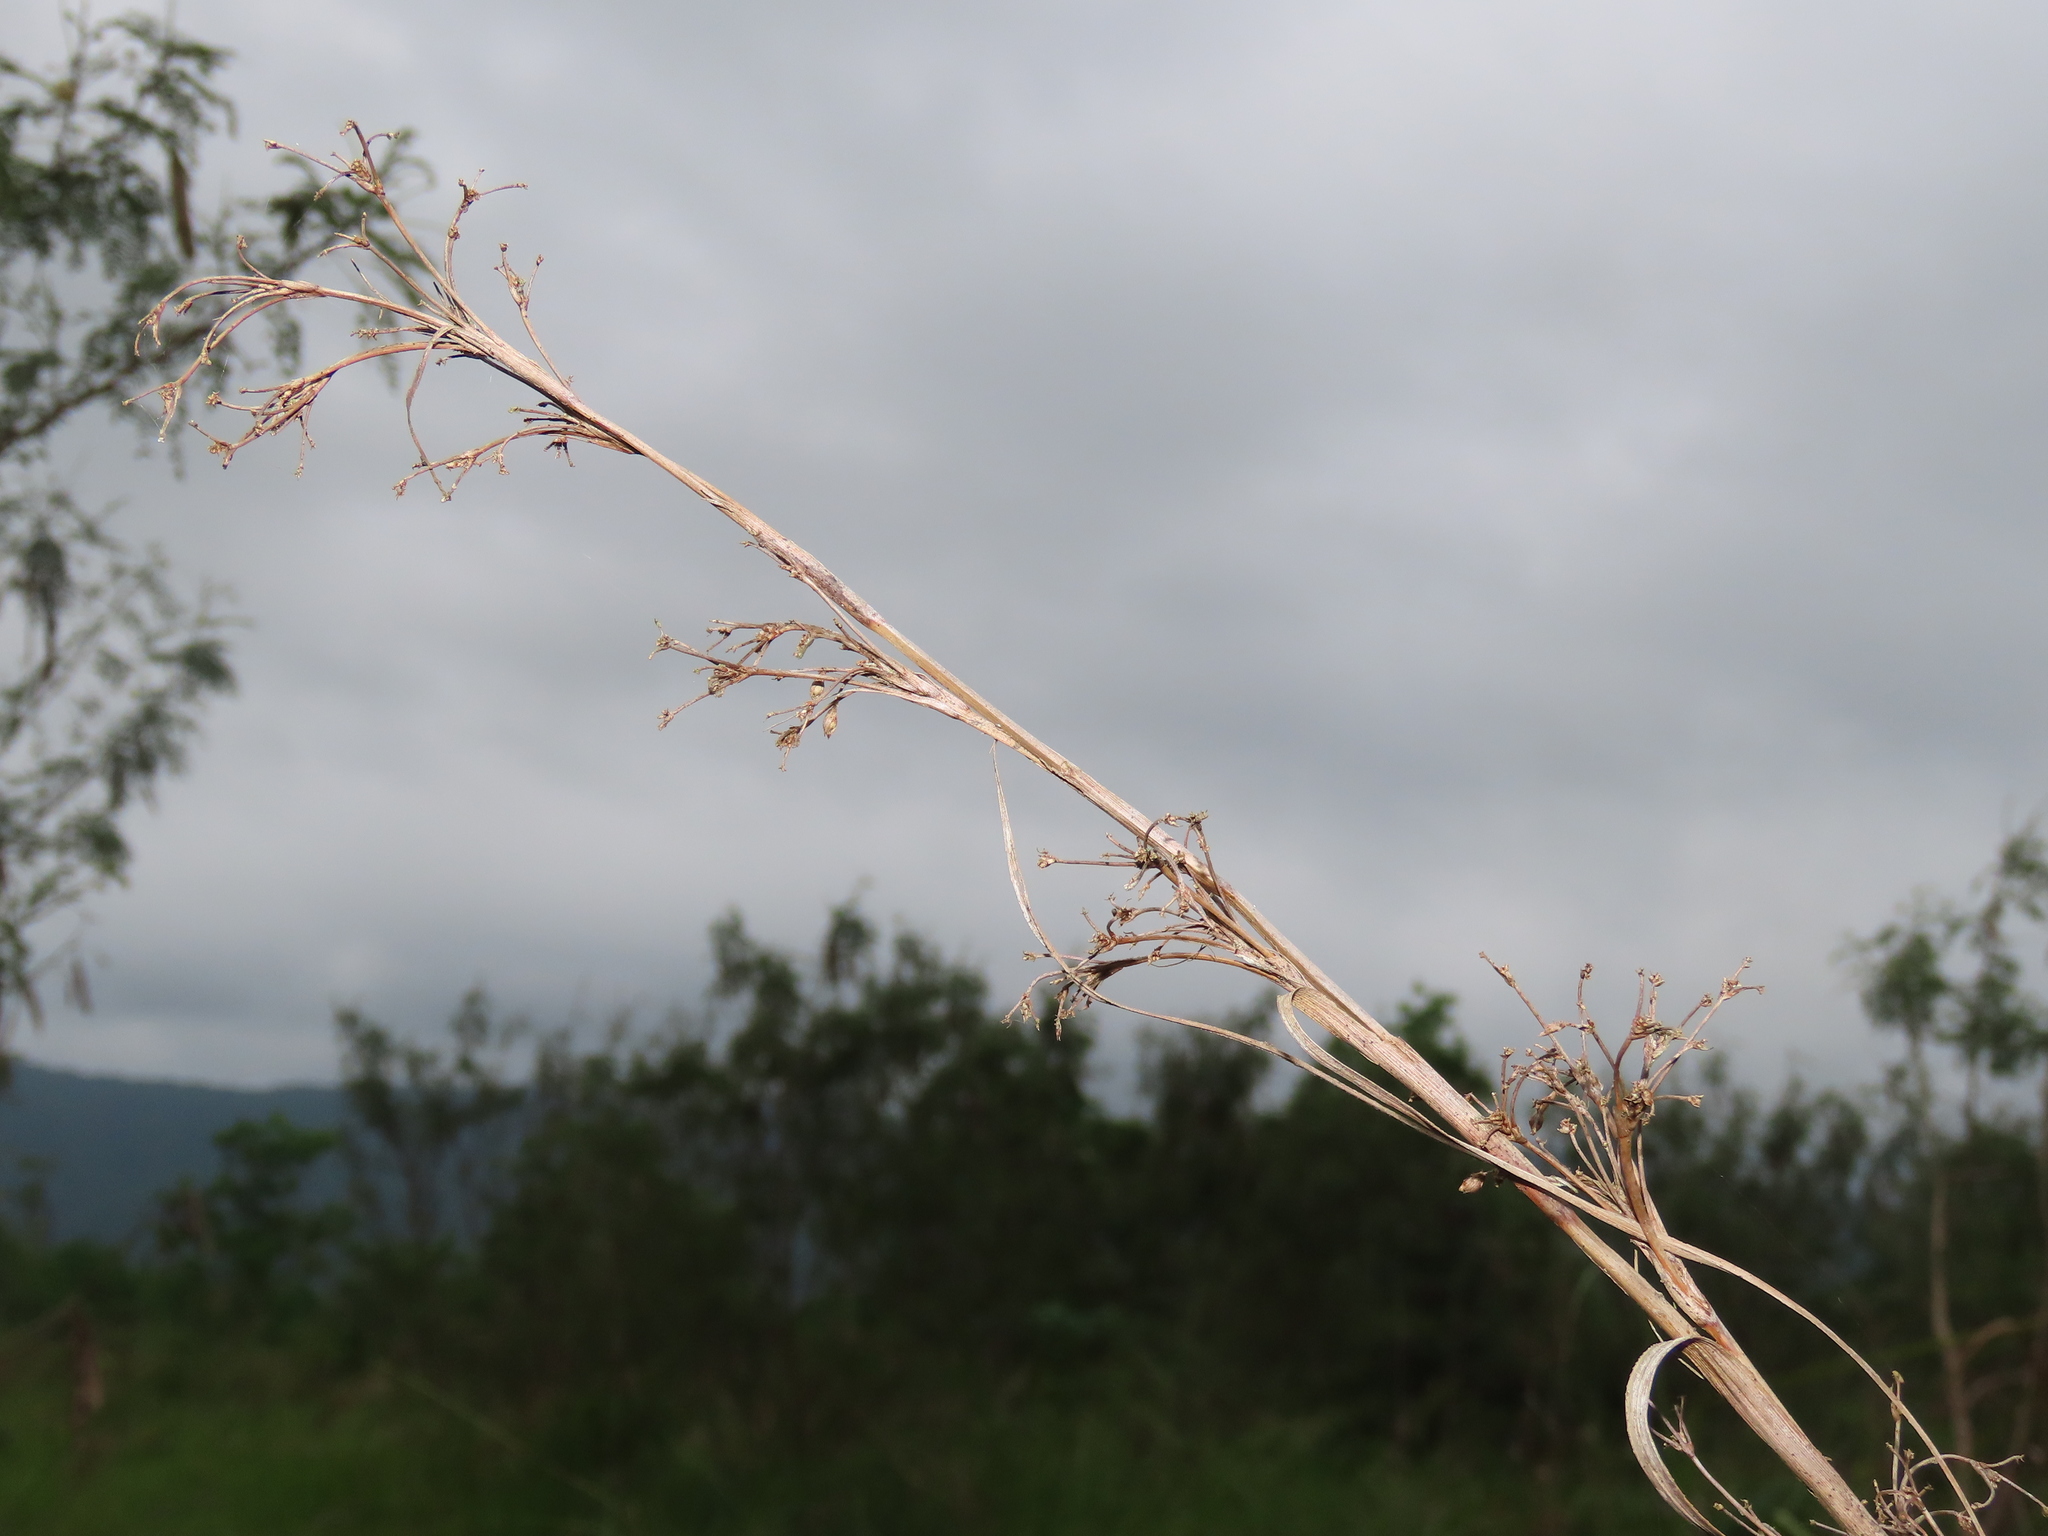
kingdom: Plantae
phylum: Tracheophyta
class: Liliopsida
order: Poales
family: Cyperaceae
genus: Cladium
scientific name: Cladium mariscus
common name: Great fen-sedge
